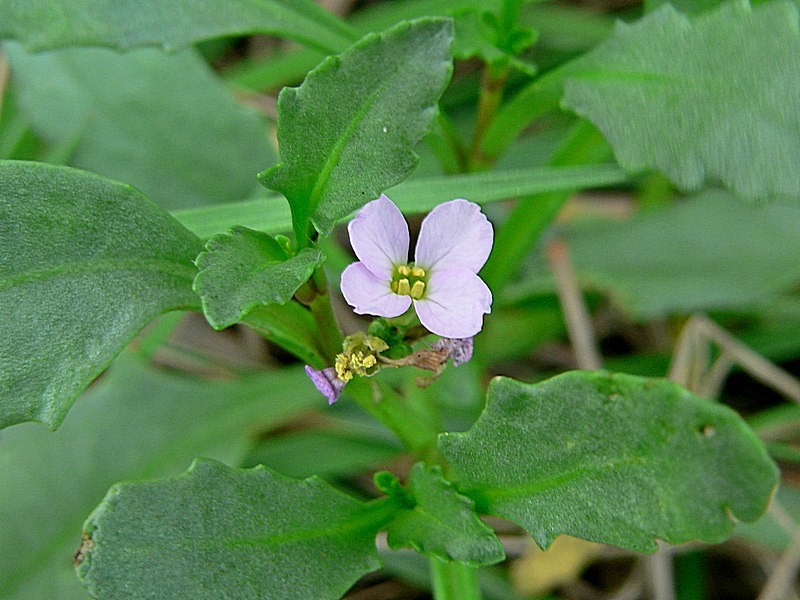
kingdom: Plantae
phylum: Tracheophyta
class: Magnoliopsida
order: Brassicales
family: Brassicaceae
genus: Cakile
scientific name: Cakile maritima
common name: Sea rocket
